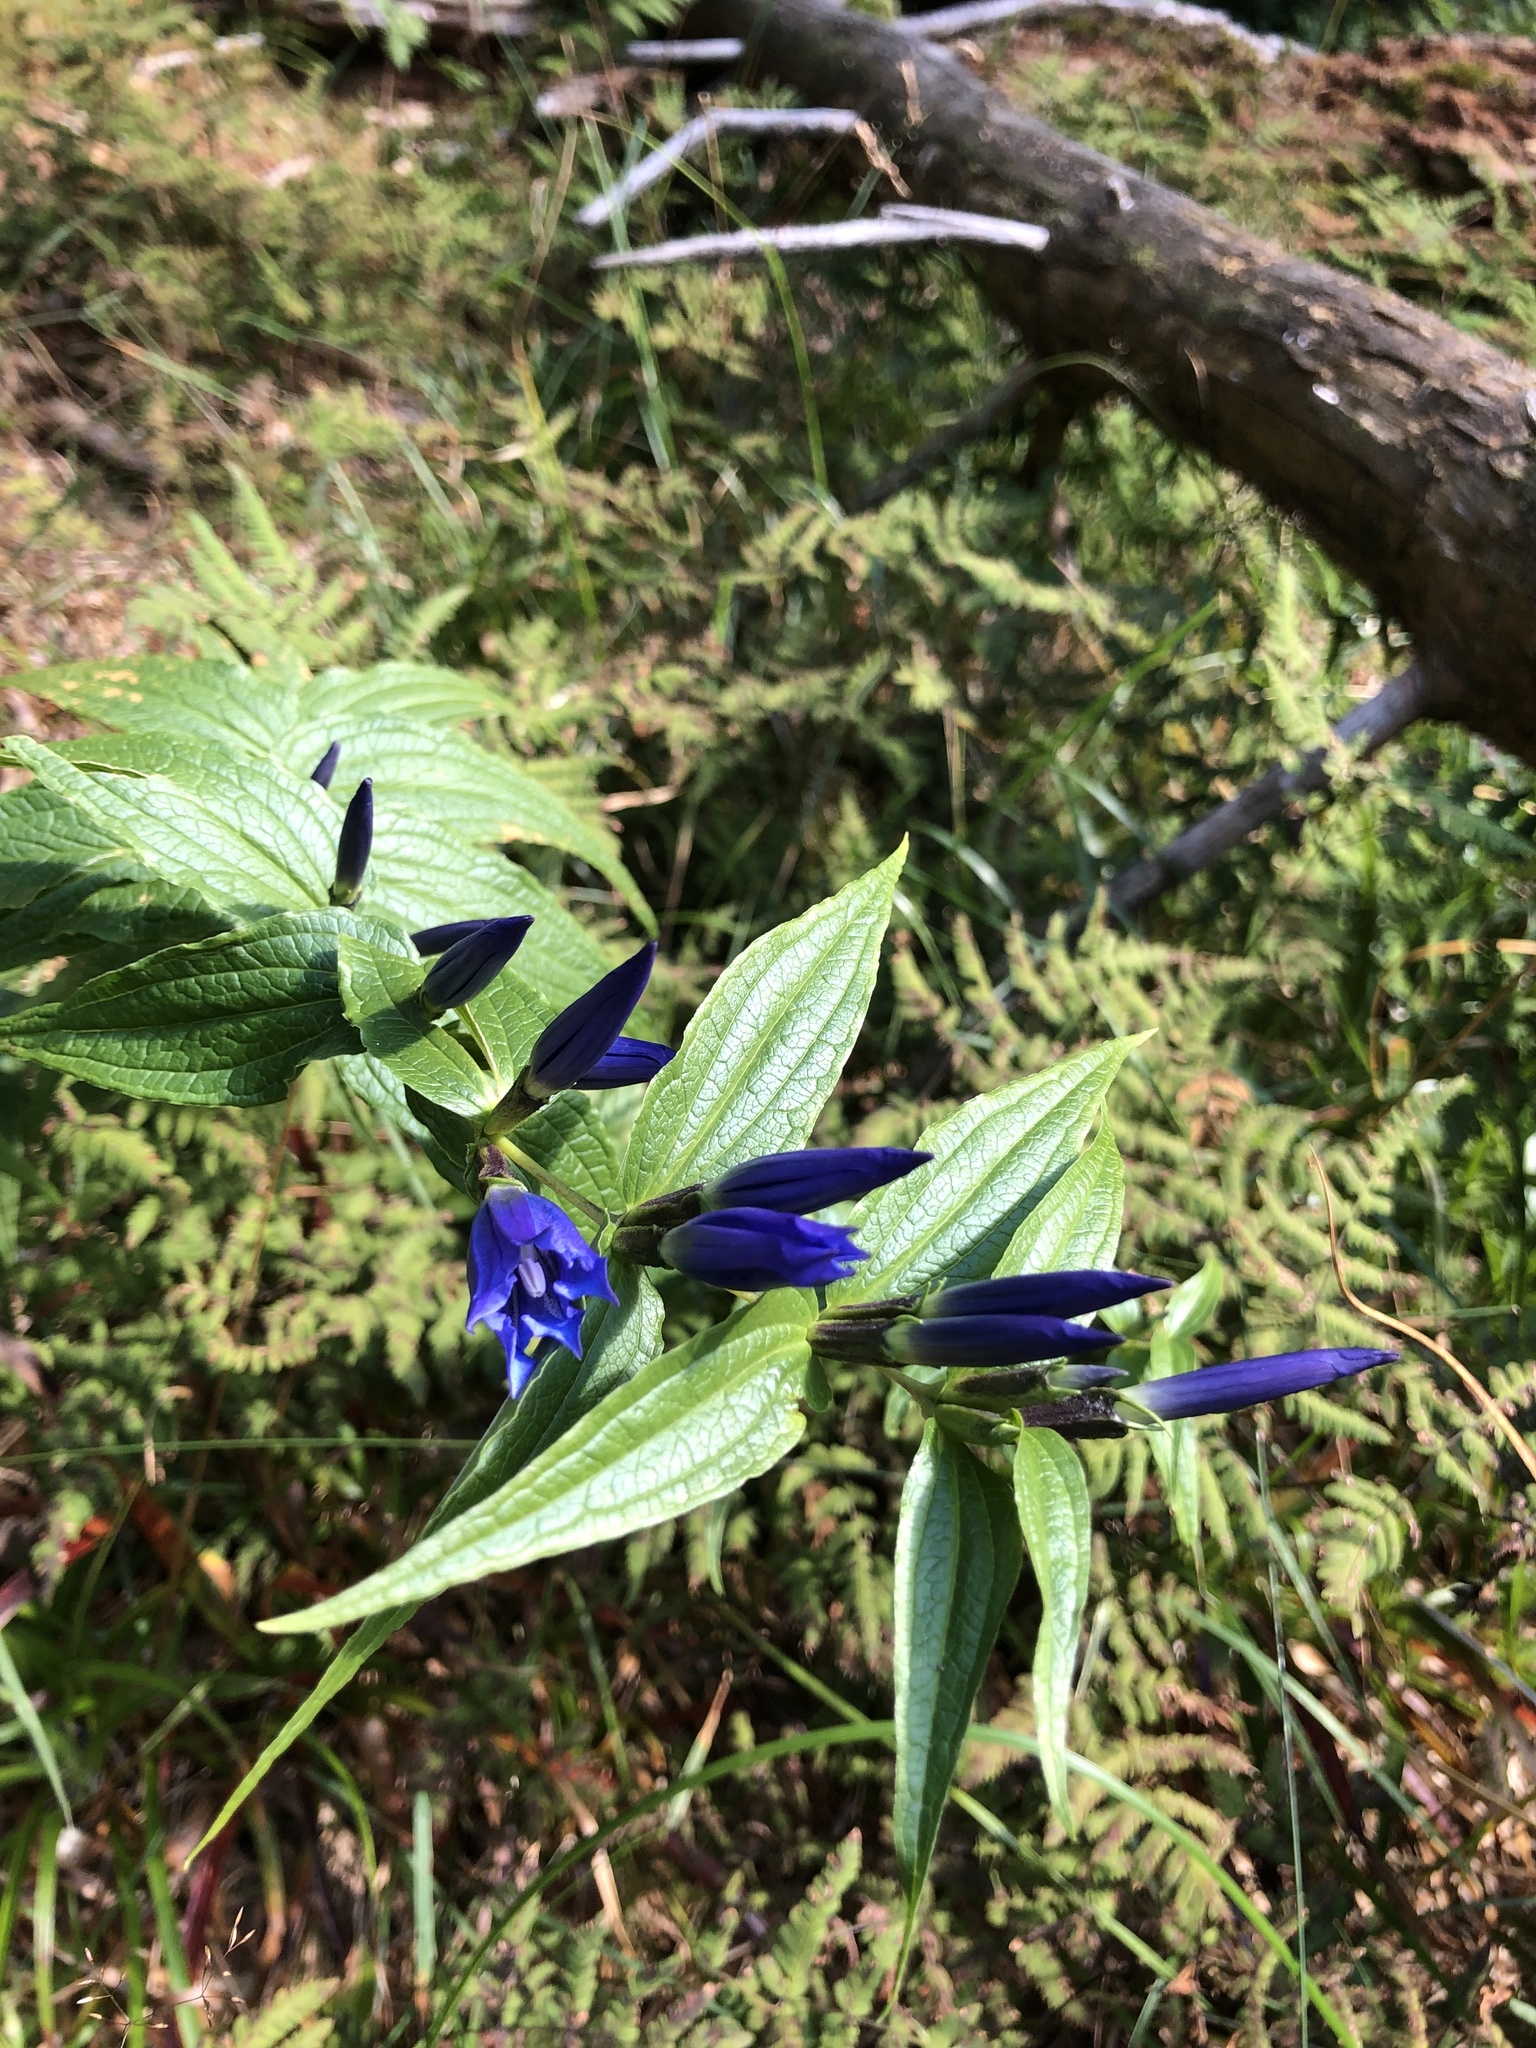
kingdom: Plantae
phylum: Tracheophyta
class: Magnoliopsida
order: Gentianales
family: Gentianaceae
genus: Gentiana
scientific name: Gentiana asclepiadea
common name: Willow gentian
